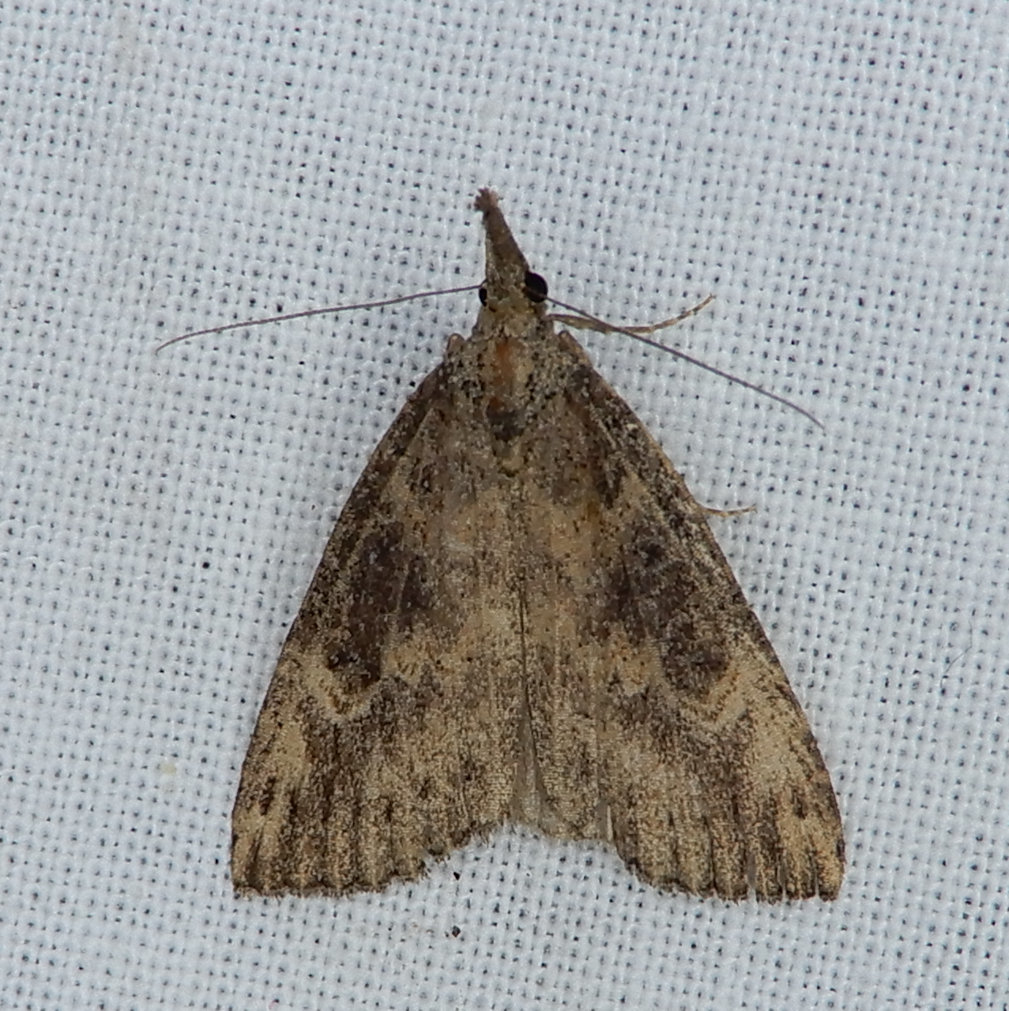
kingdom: Animalia
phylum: Arthropoda
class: Insecta
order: Lepidoptera
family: Erebidae
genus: Hypena
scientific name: Hypena humuli
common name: Hop vine snout
